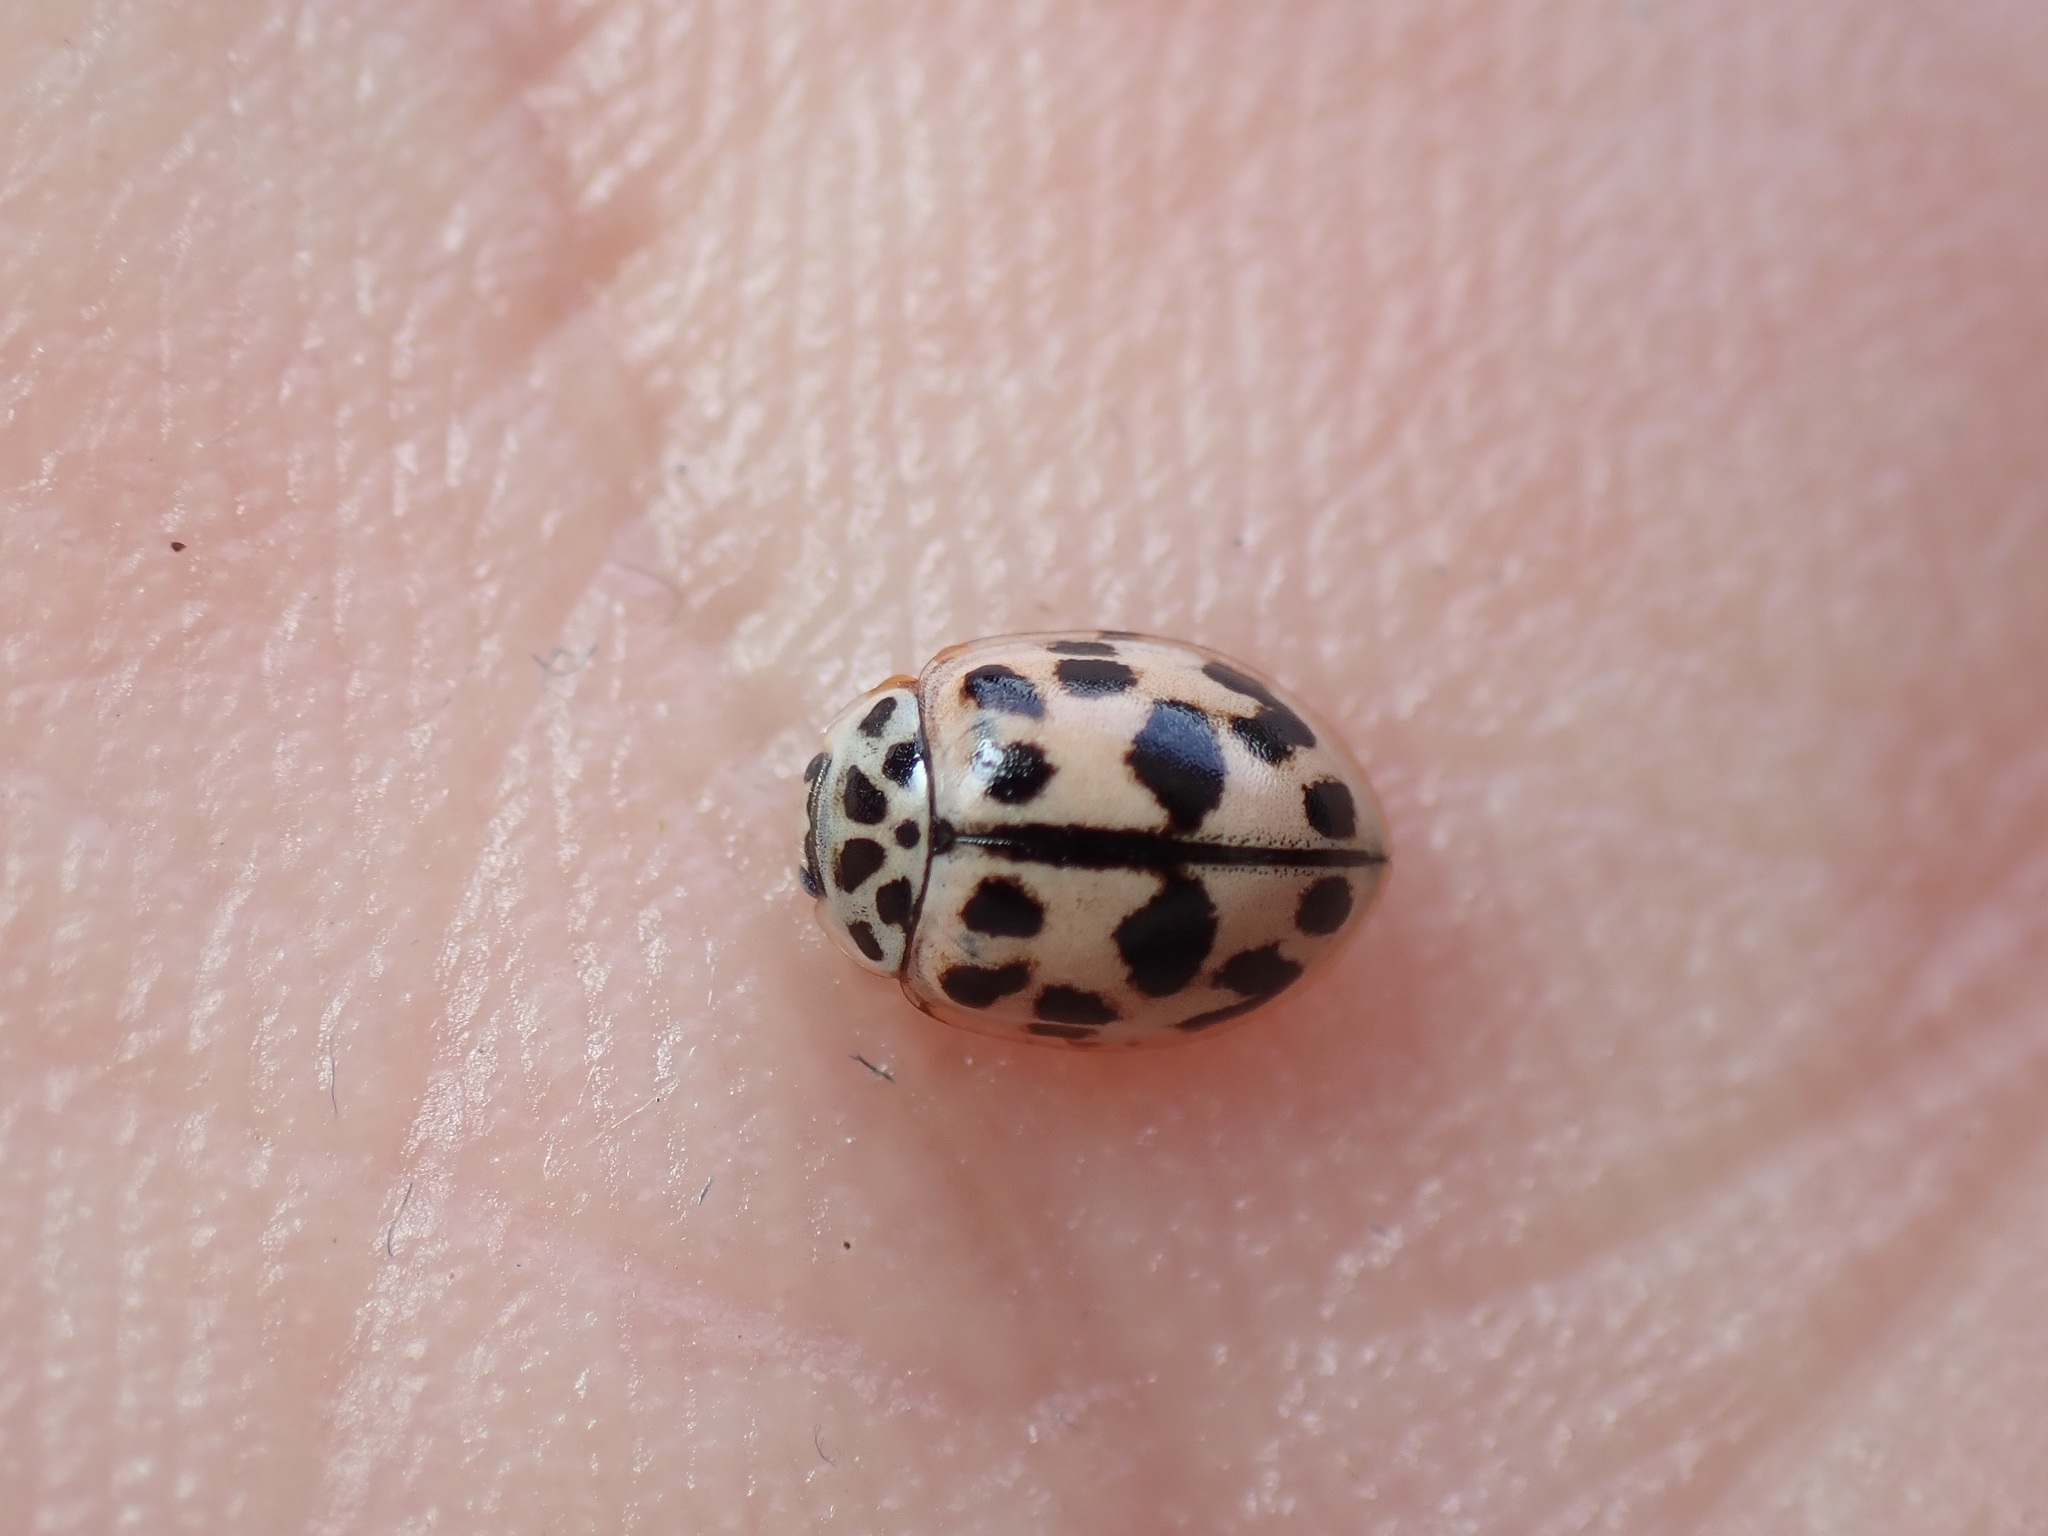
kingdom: Animalia
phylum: Arthropoda
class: Insecta
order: Coleoptera
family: Coccinellidae
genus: Oenopia
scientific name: Oenopia conglobata
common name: Ladybird beetle
